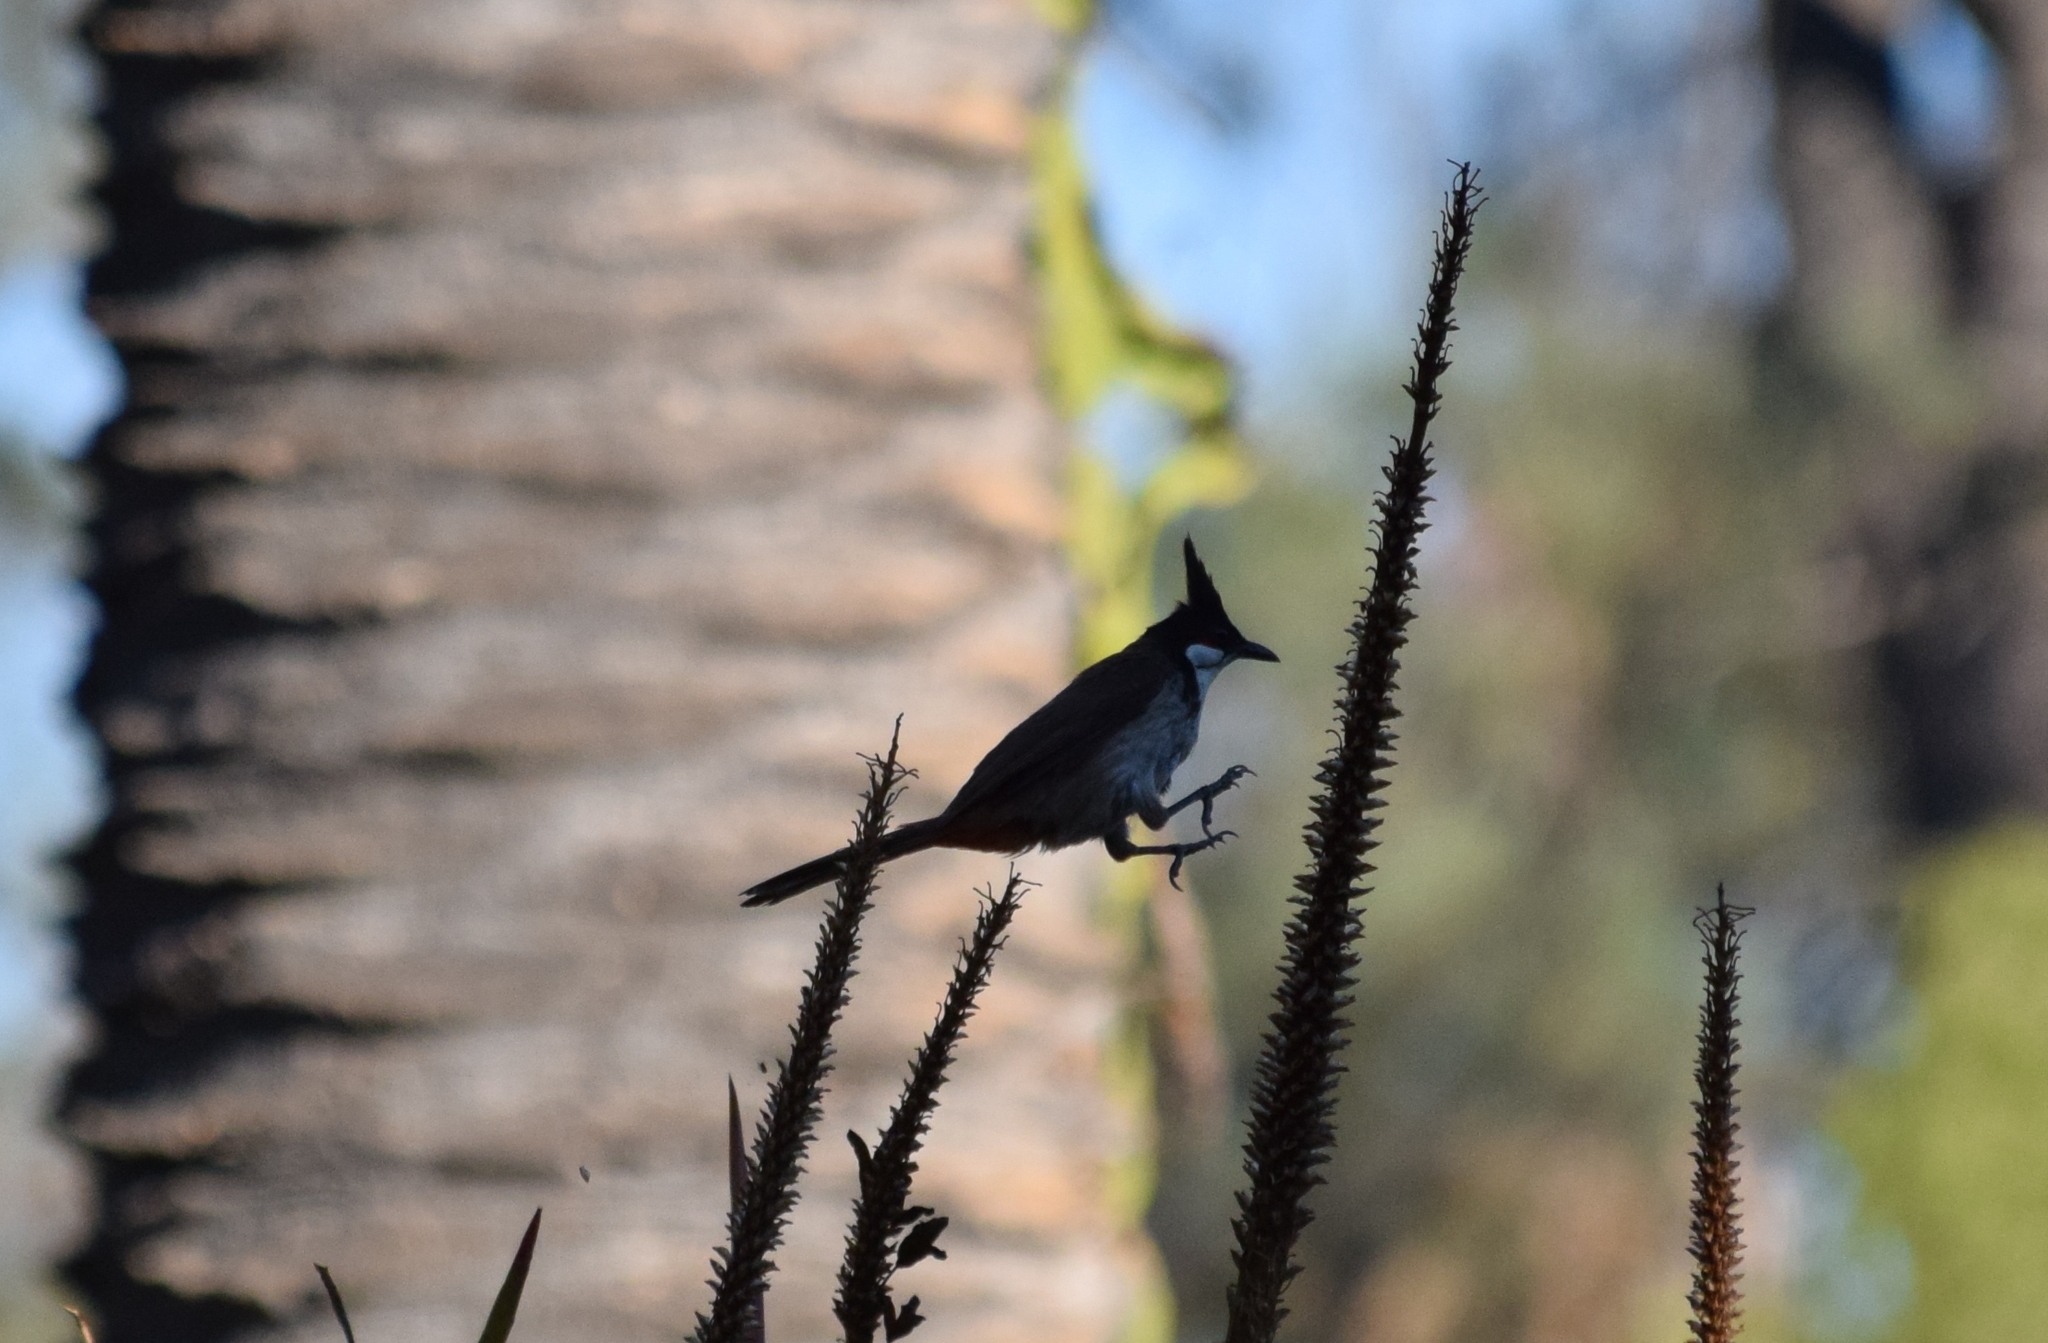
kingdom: Animalia
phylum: Chordata
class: Aves
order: Passeriformes
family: Pycnonotidae
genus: Pycnonotus
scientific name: Pycnonotus jocosus
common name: Red-whiskered bulbul
